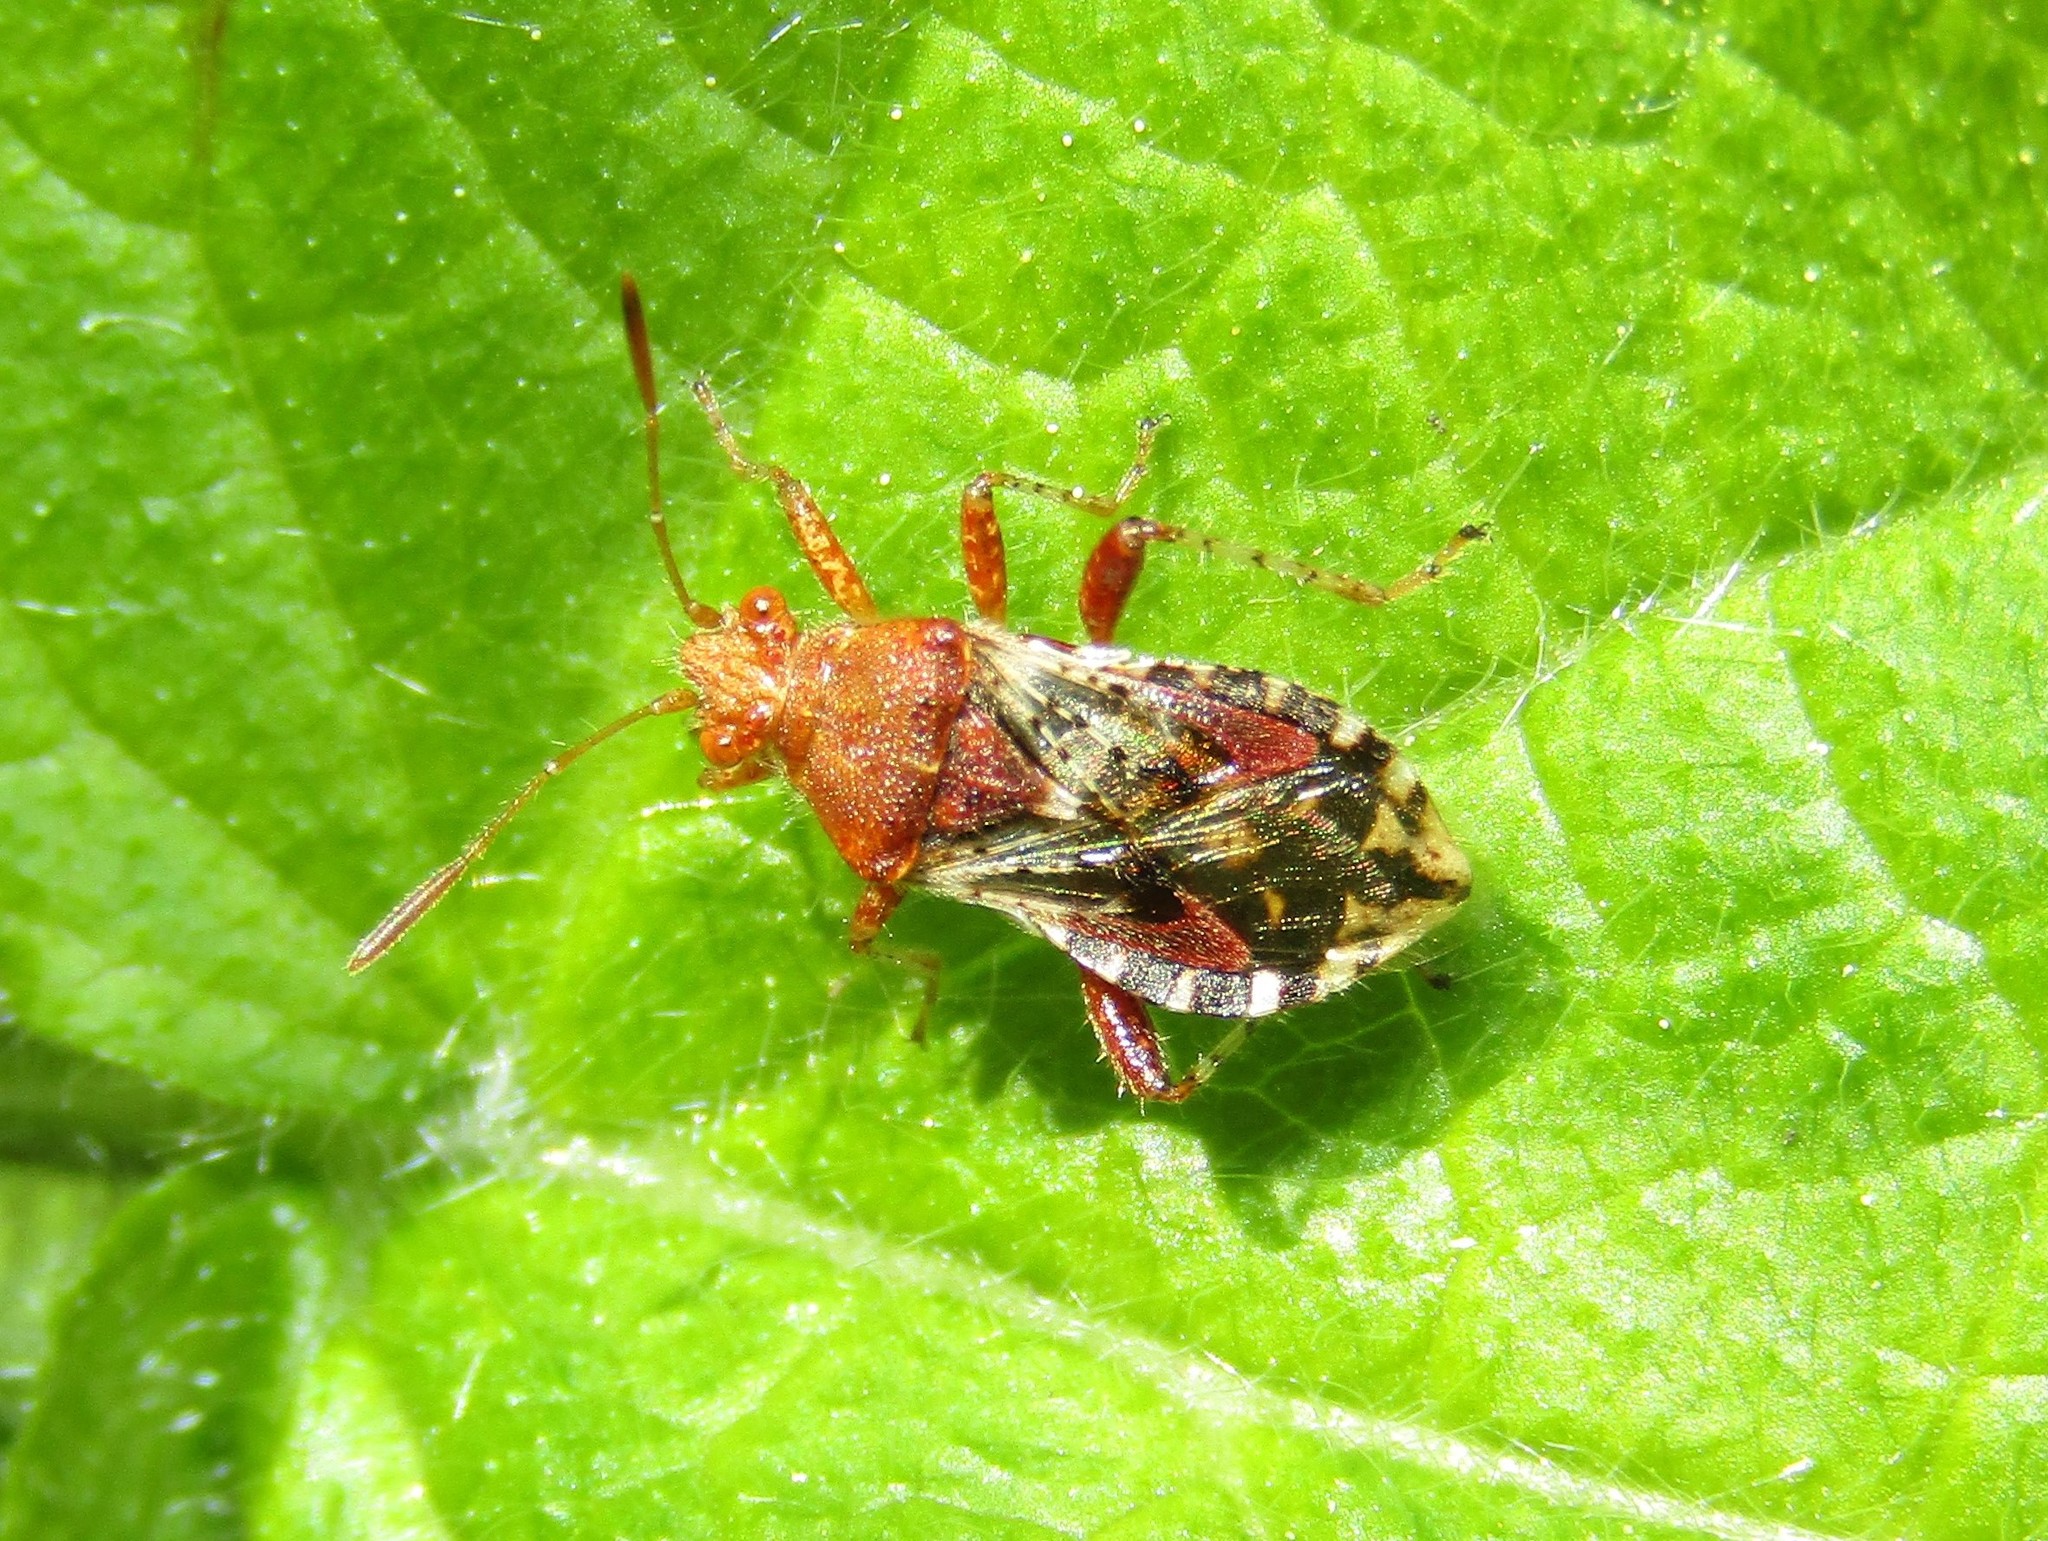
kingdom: Animalia
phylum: Arthropoda
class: Insecta
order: Hemiptera
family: Rhopalidae
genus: Rhopalus
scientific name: Rhopalus subrufus
